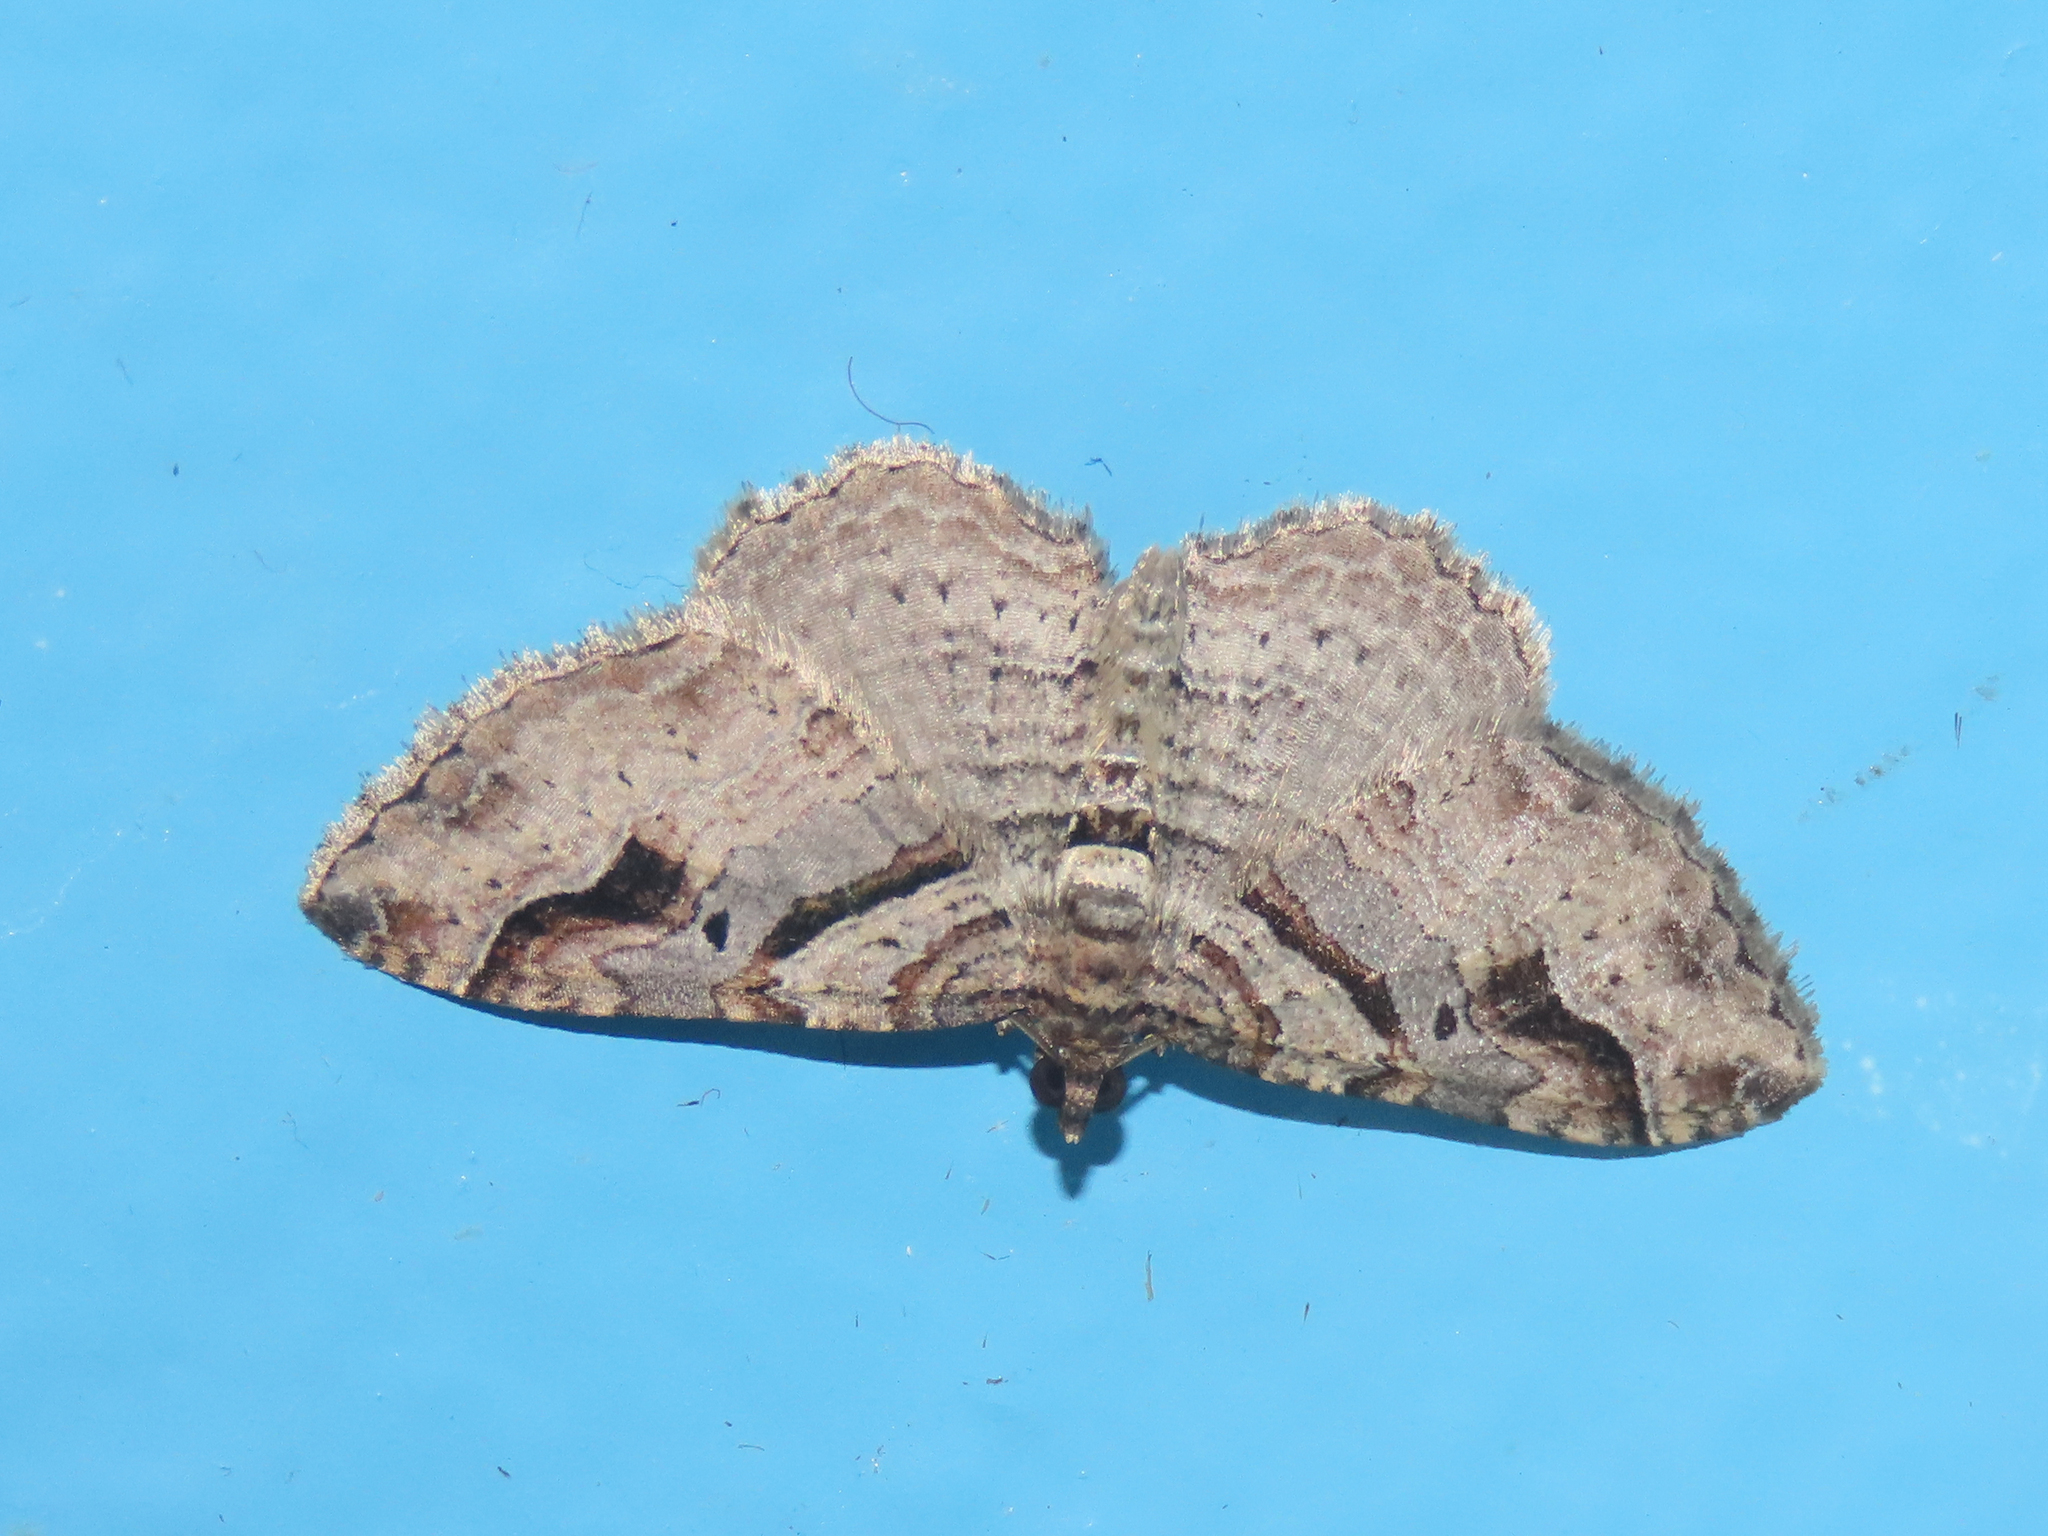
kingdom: Animalia
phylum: Arthropoda
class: Insecta
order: Lepidoptera
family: Geometridae
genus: Costaconvexa
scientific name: Costaconvexa centrostrigaria
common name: Bent-line carpet
